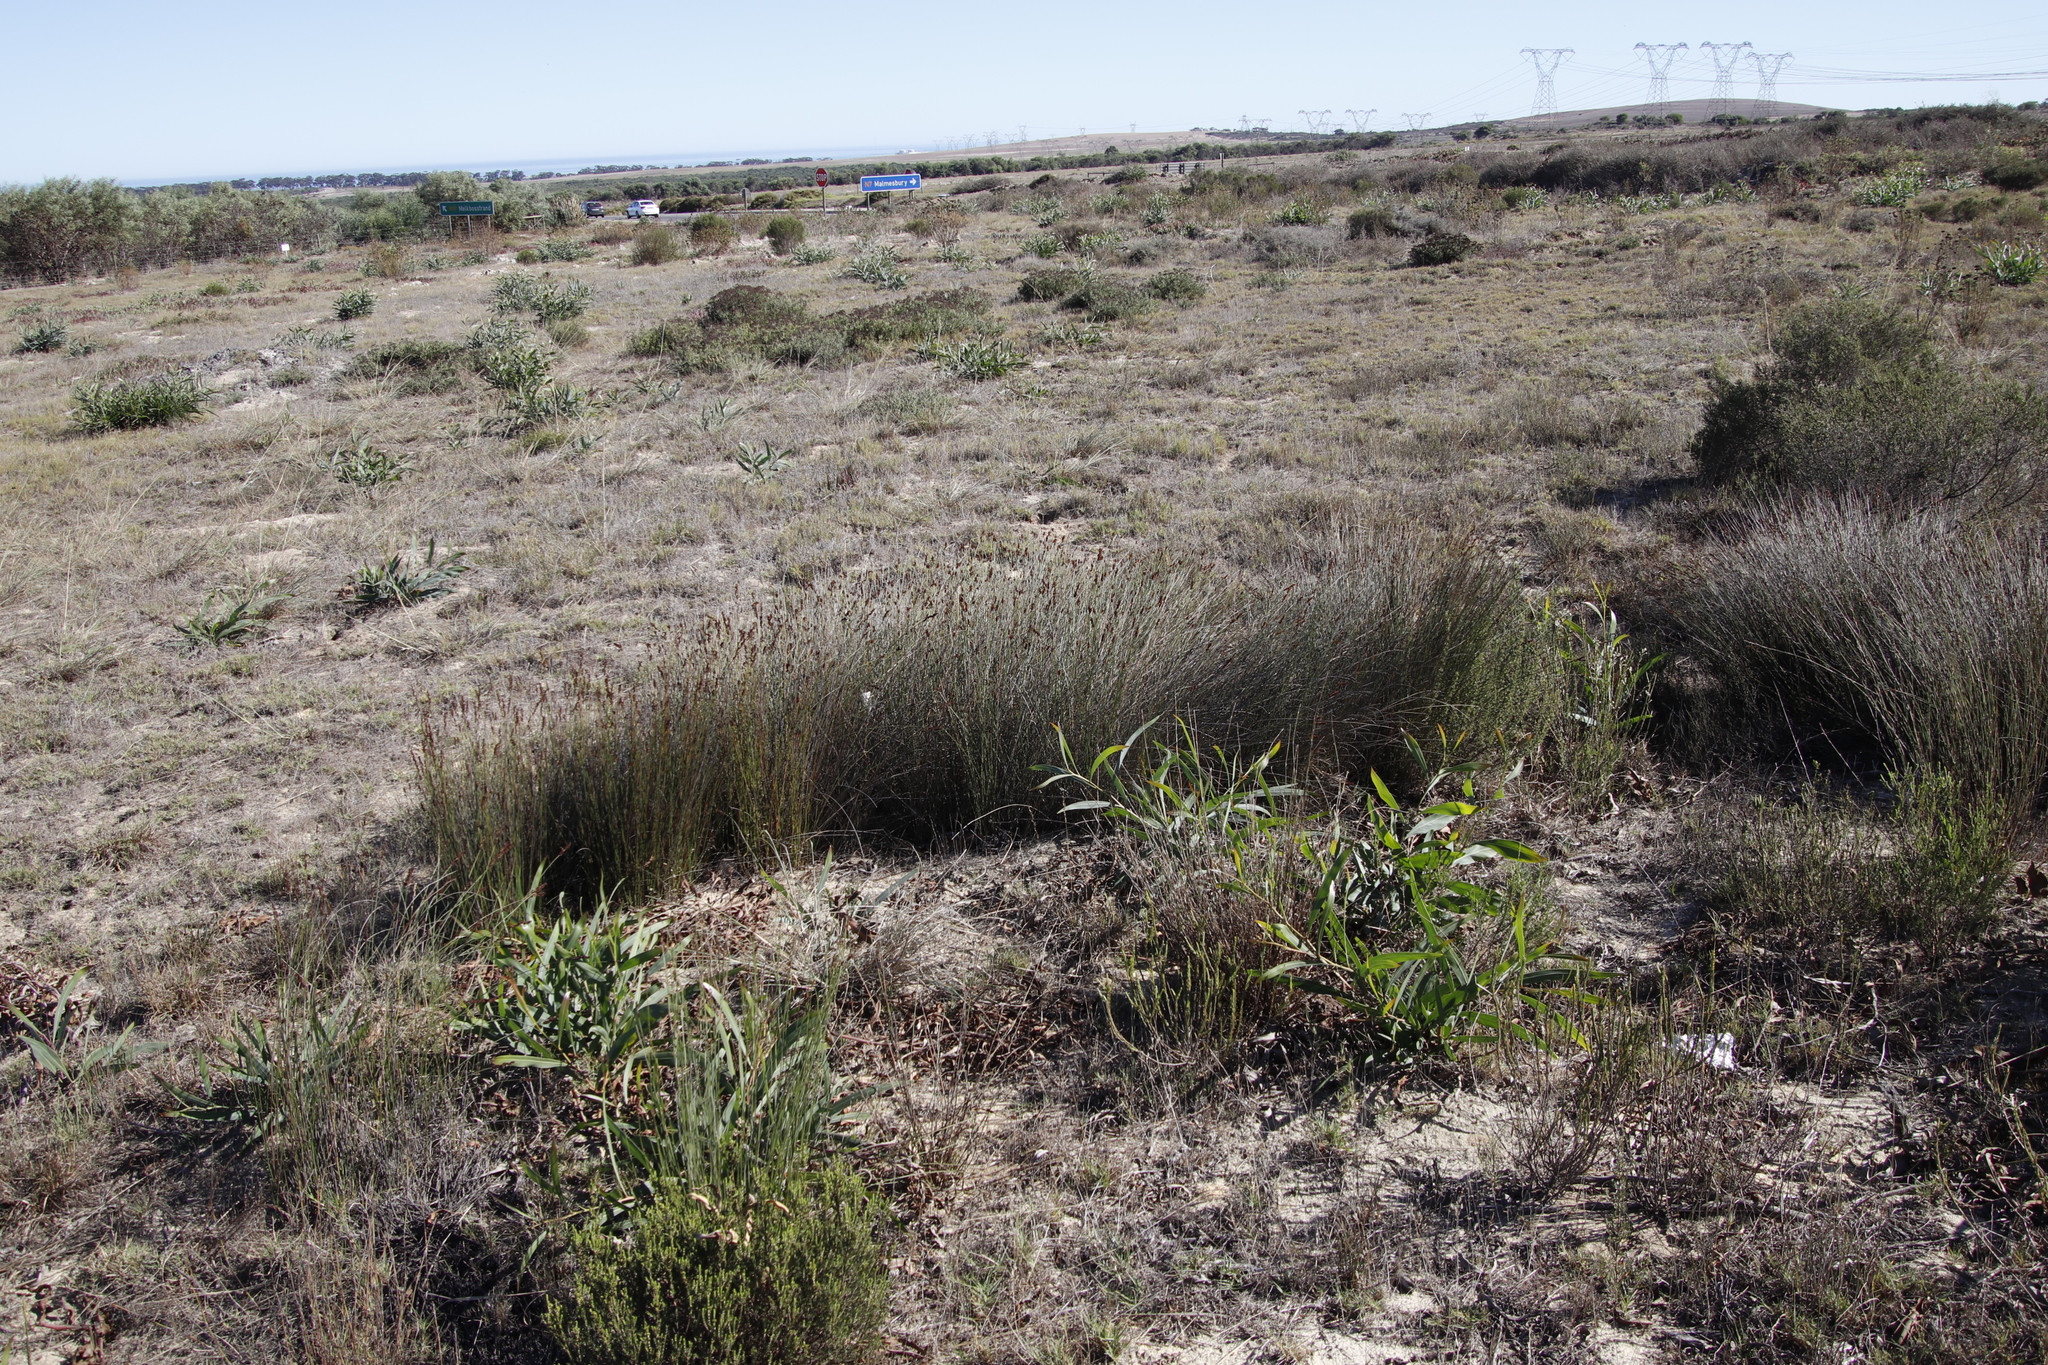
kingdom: Plantae
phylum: Tracheophyta
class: Liliopsida
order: Poales
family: Restionaceae
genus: Elegia
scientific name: Elegia nuda
